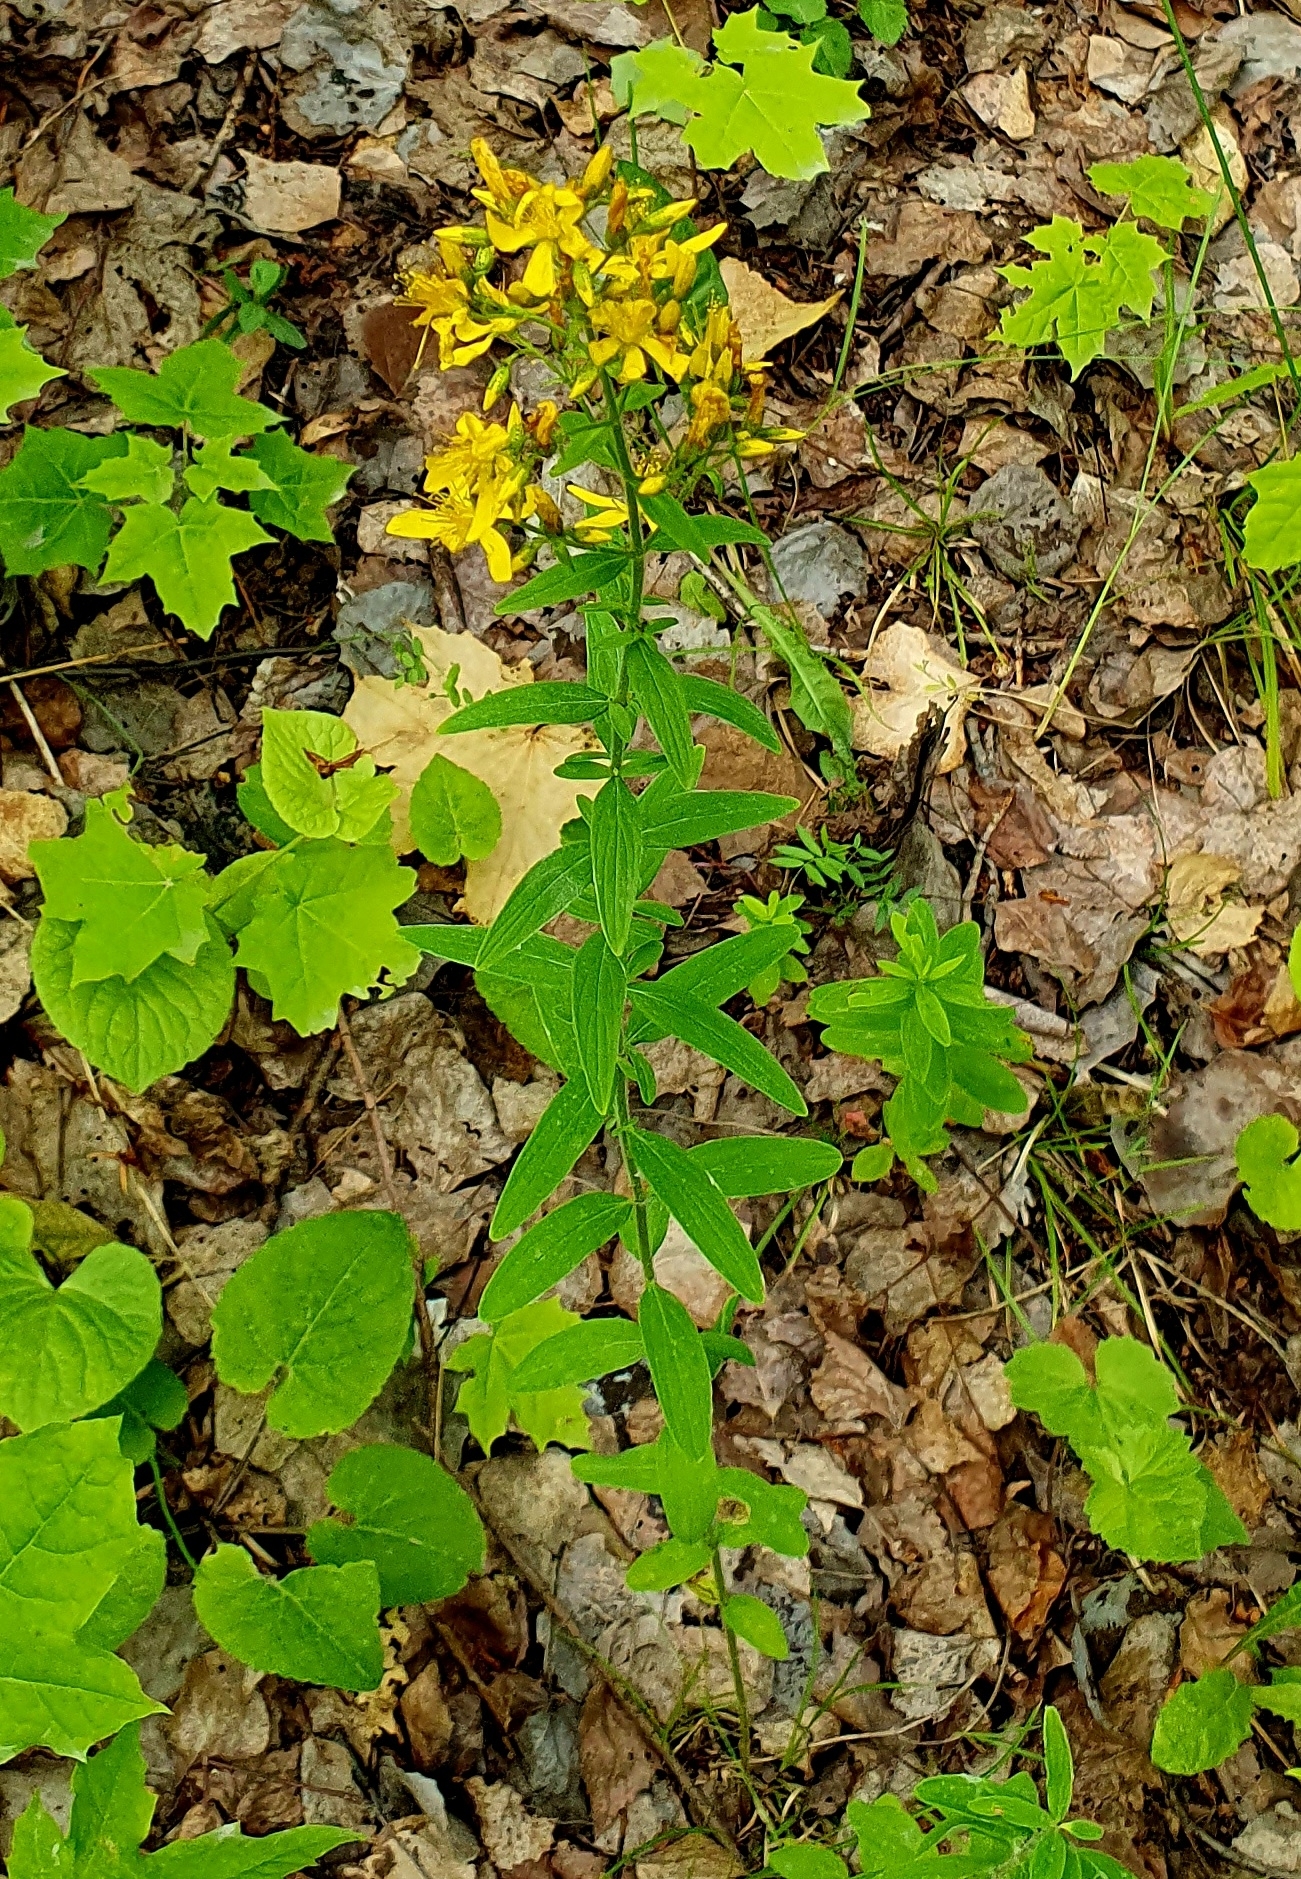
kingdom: Plantae
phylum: Tracheophyta
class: Magnoliopsida
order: Malpighiales
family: Hypericaceae
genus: Hypericum
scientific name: Hypericum hirsutum
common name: Hairy st. john's-wort
